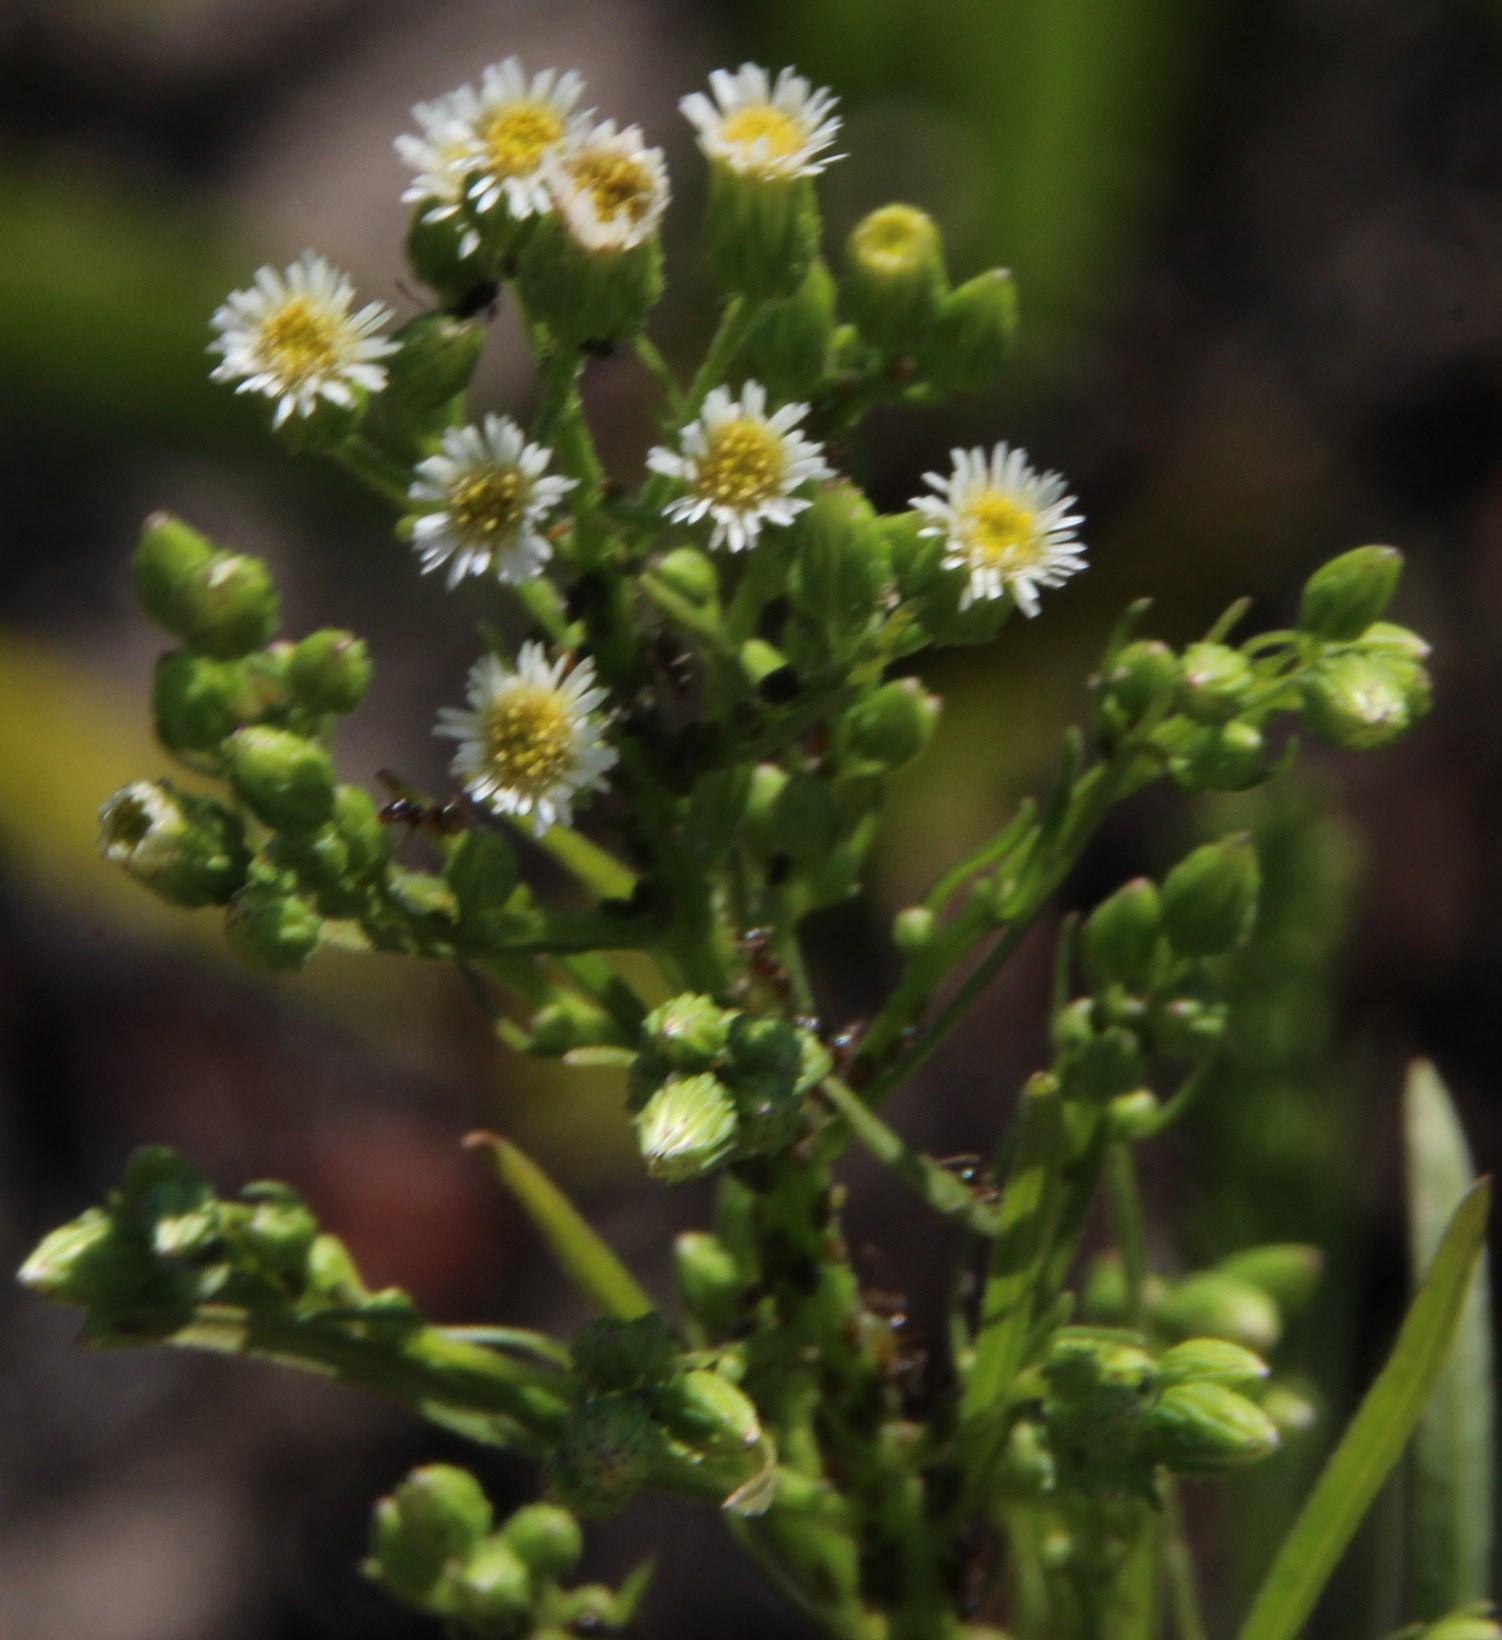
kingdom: Plantae
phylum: Tracheophyta
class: Magnoliopsida
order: Asterales
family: Asteraceae
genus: Erigeron
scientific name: Erigeron bonariensis
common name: Argentine fleabane
